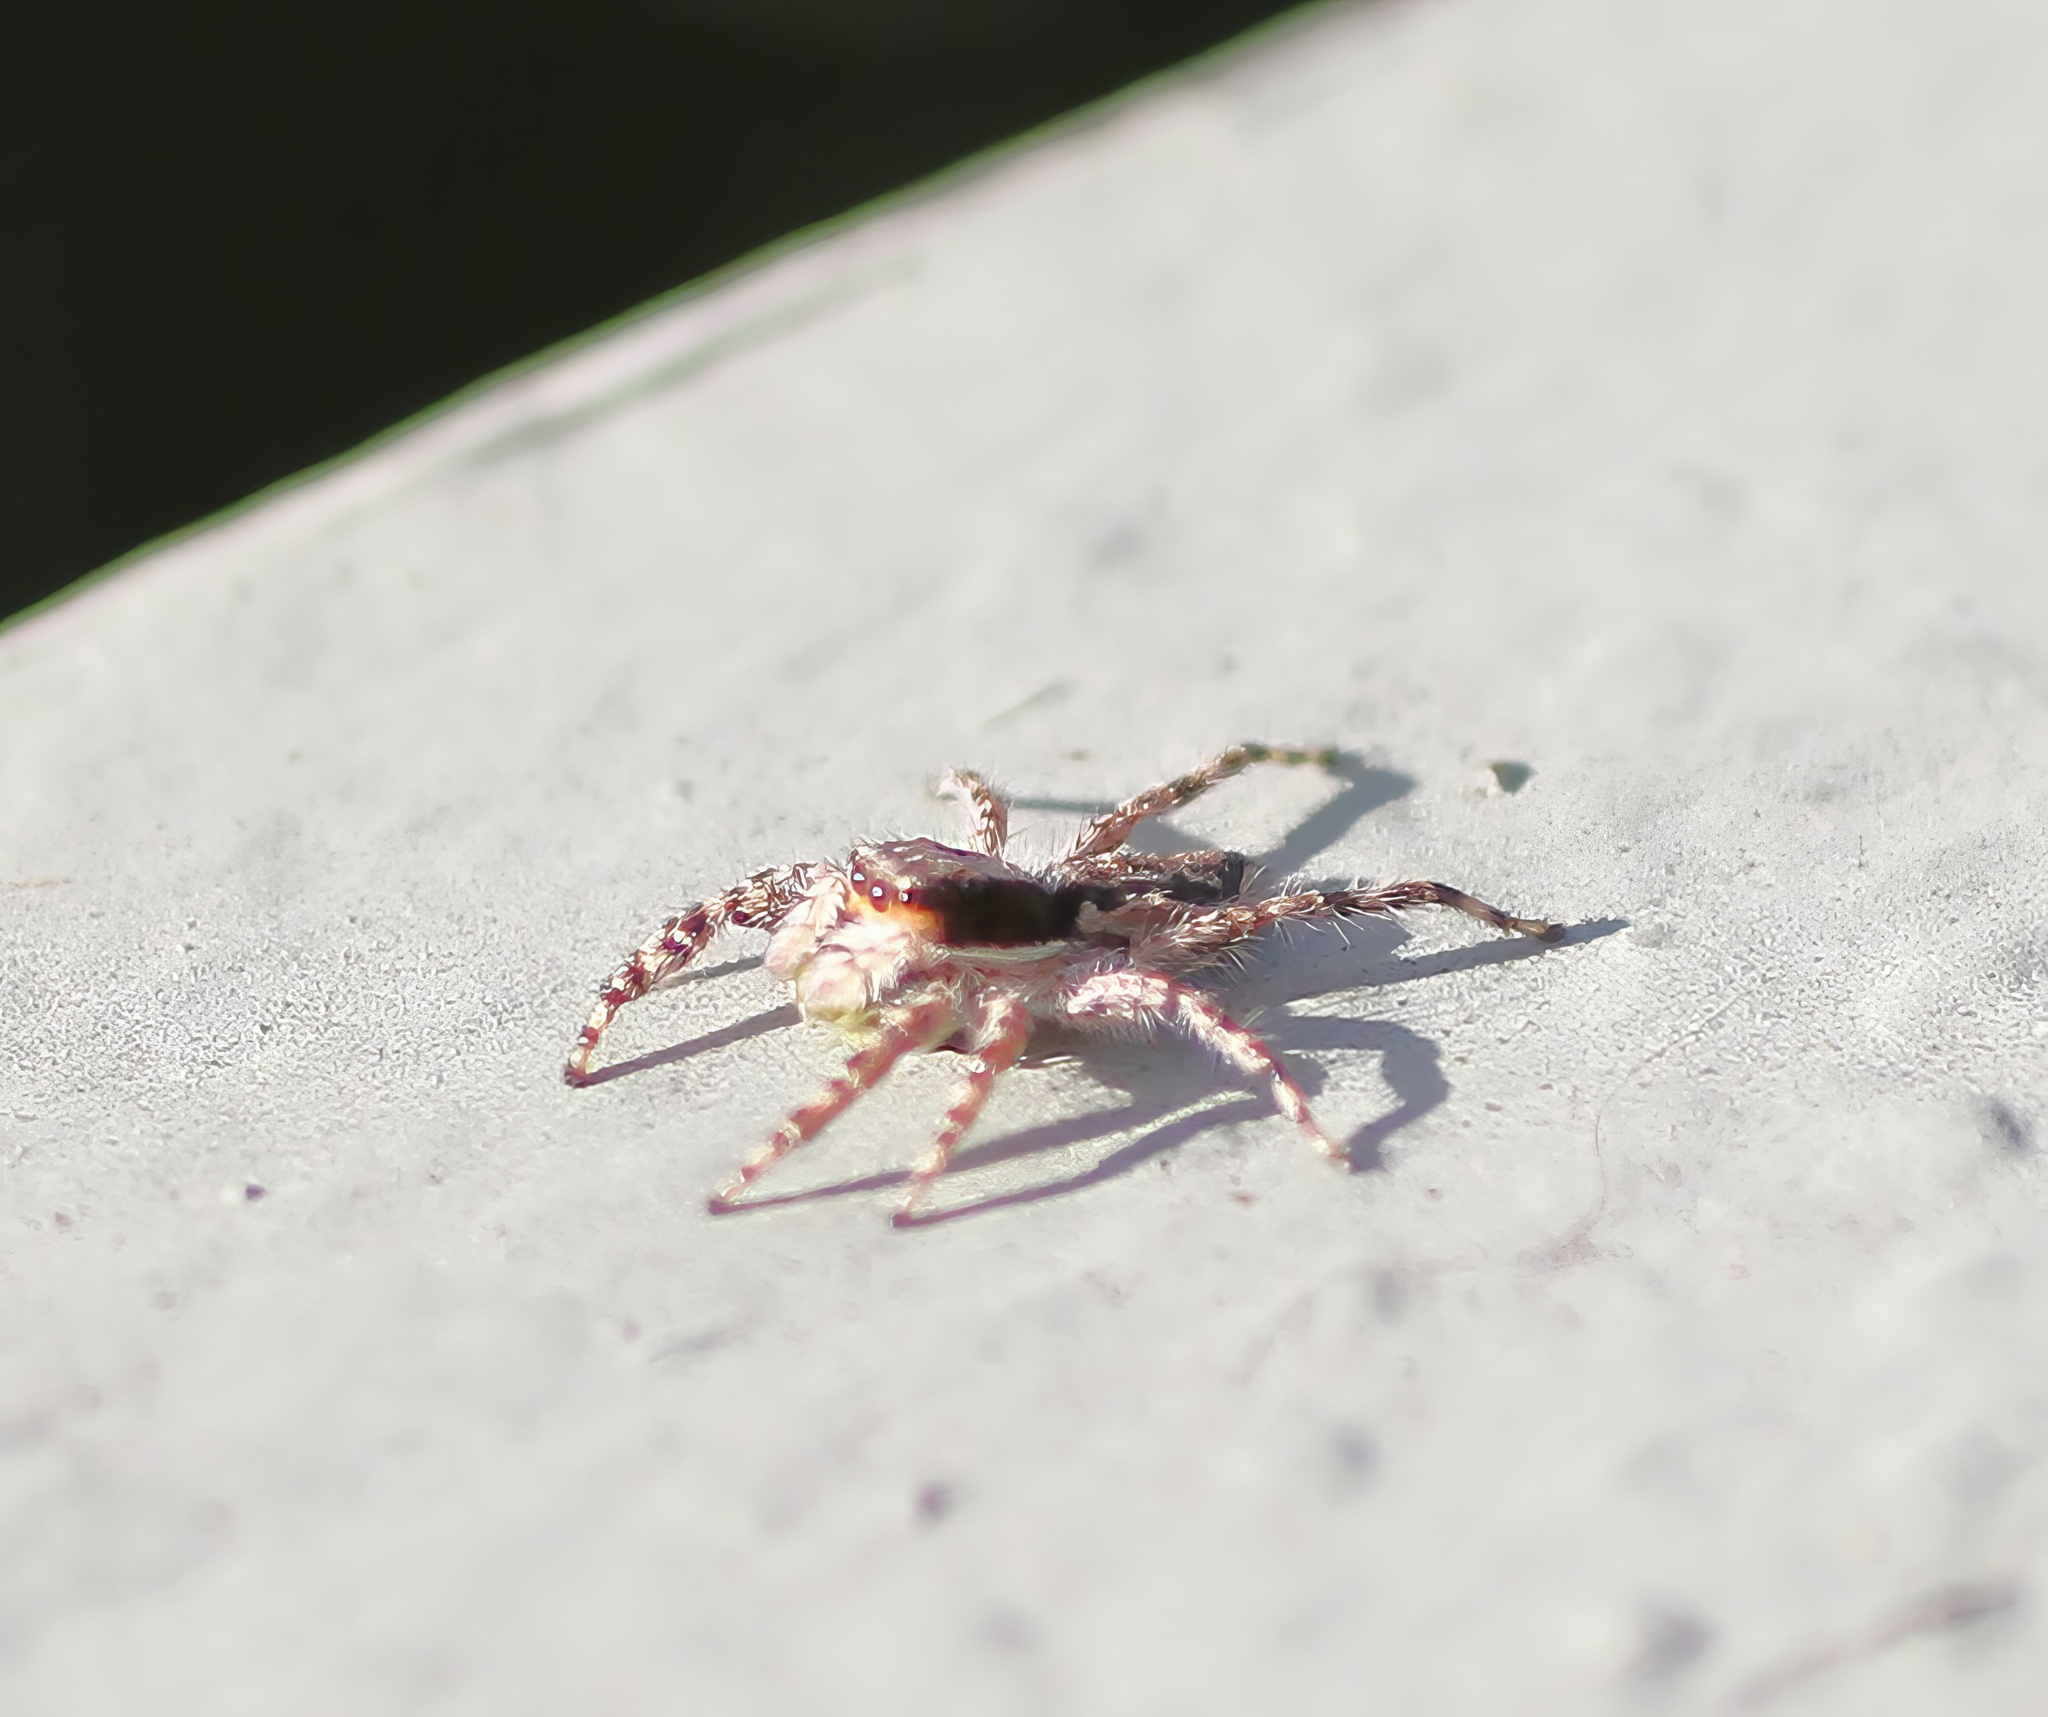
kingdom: Animalia
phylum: Arthropoda
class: Arachnida
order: Araneae
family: Salticidae
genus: Menemerus
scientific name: Menemerus bivittatus
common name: Gray wall jumper
